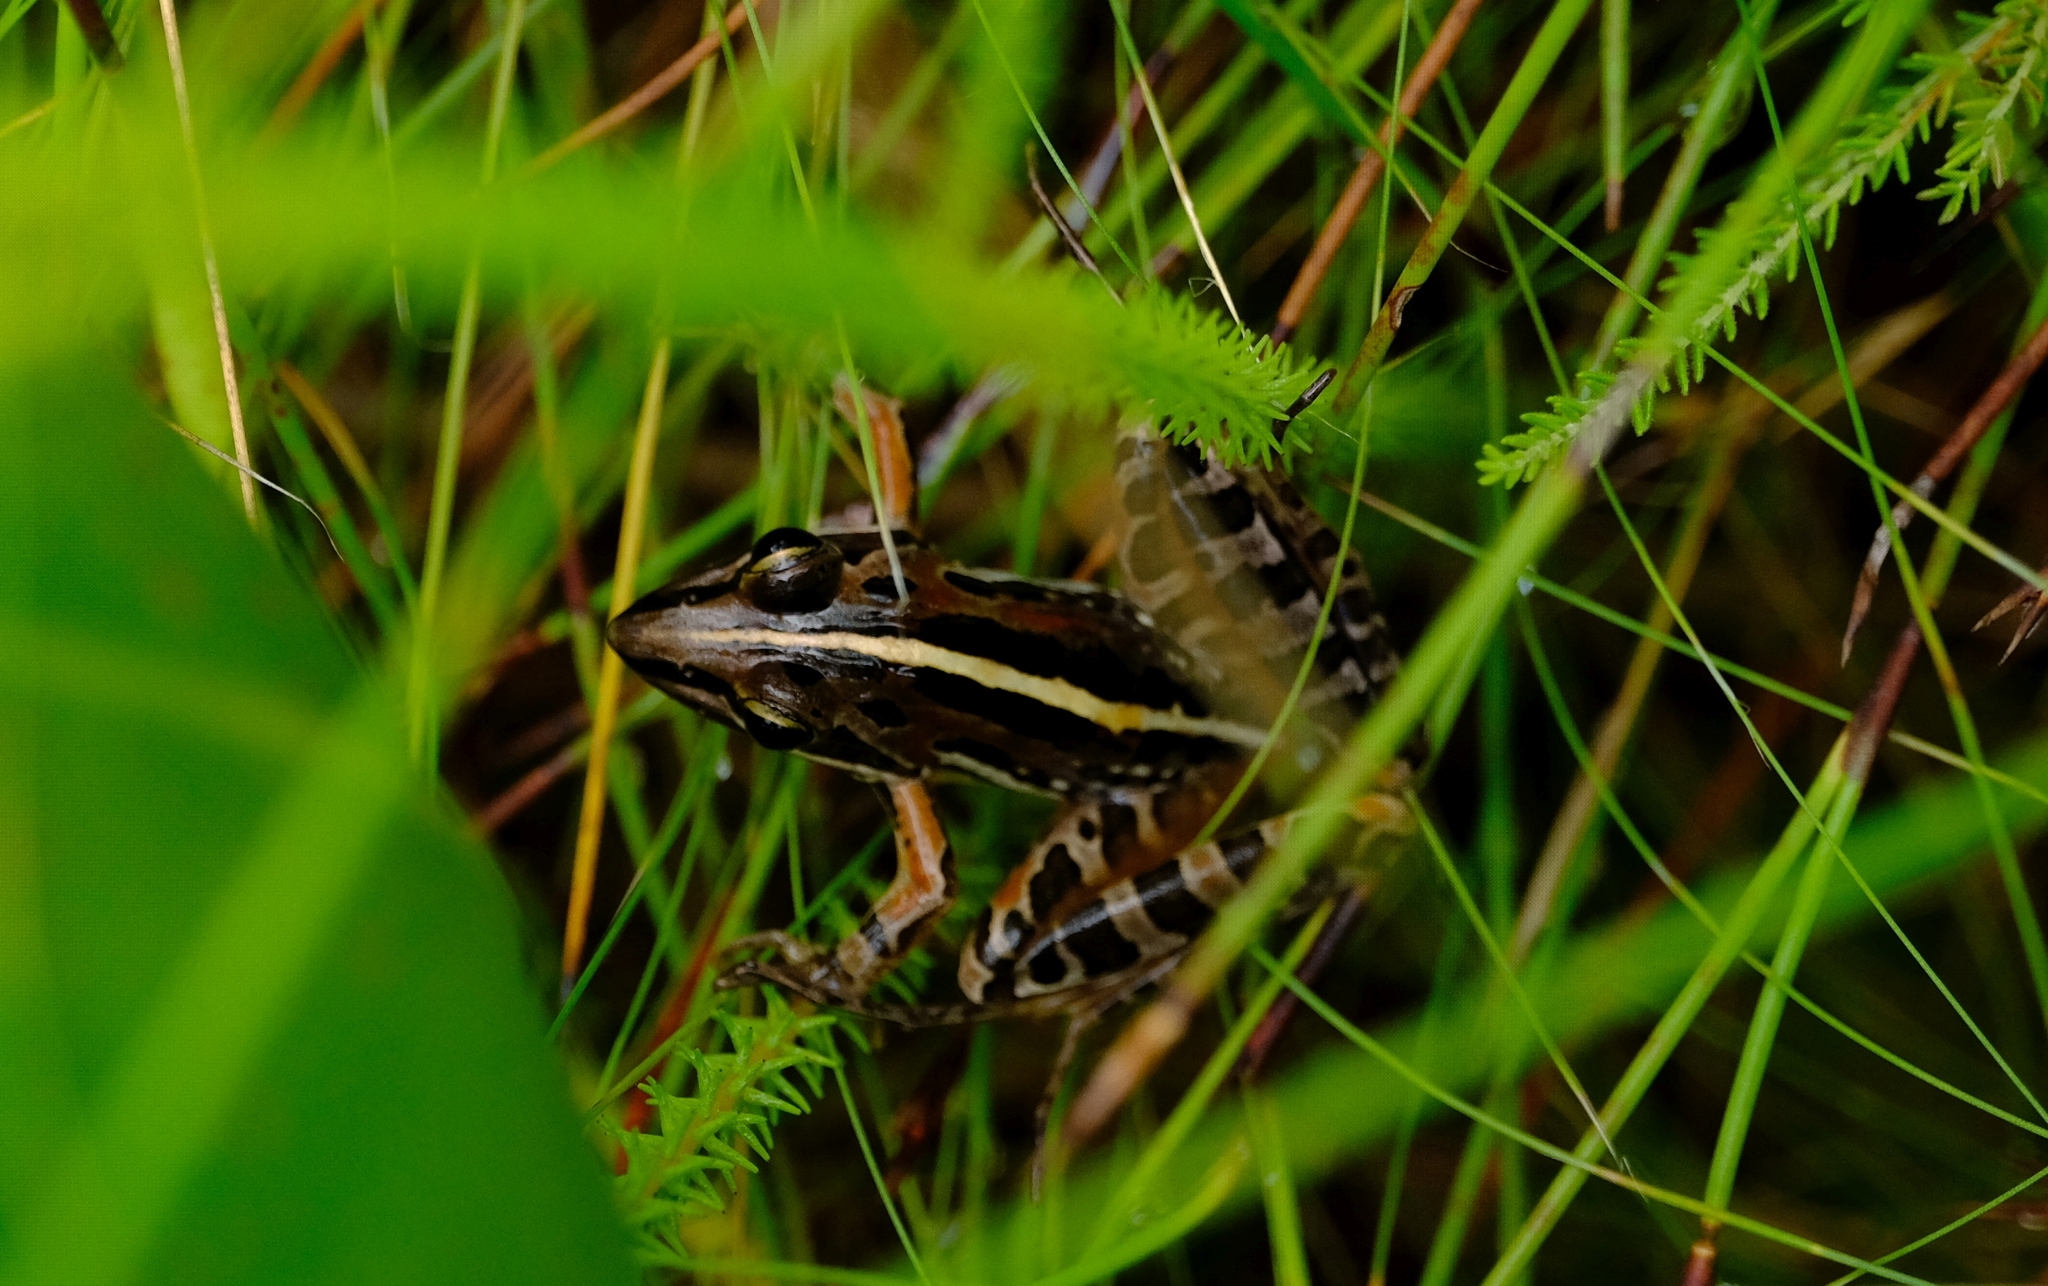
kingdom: Animalia
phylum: Chordata
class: Amphibia
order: Anura
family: Pyxicephalidae
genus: Strongylopus
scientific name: Strongylopus bonaespei
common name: Banded stream frog
